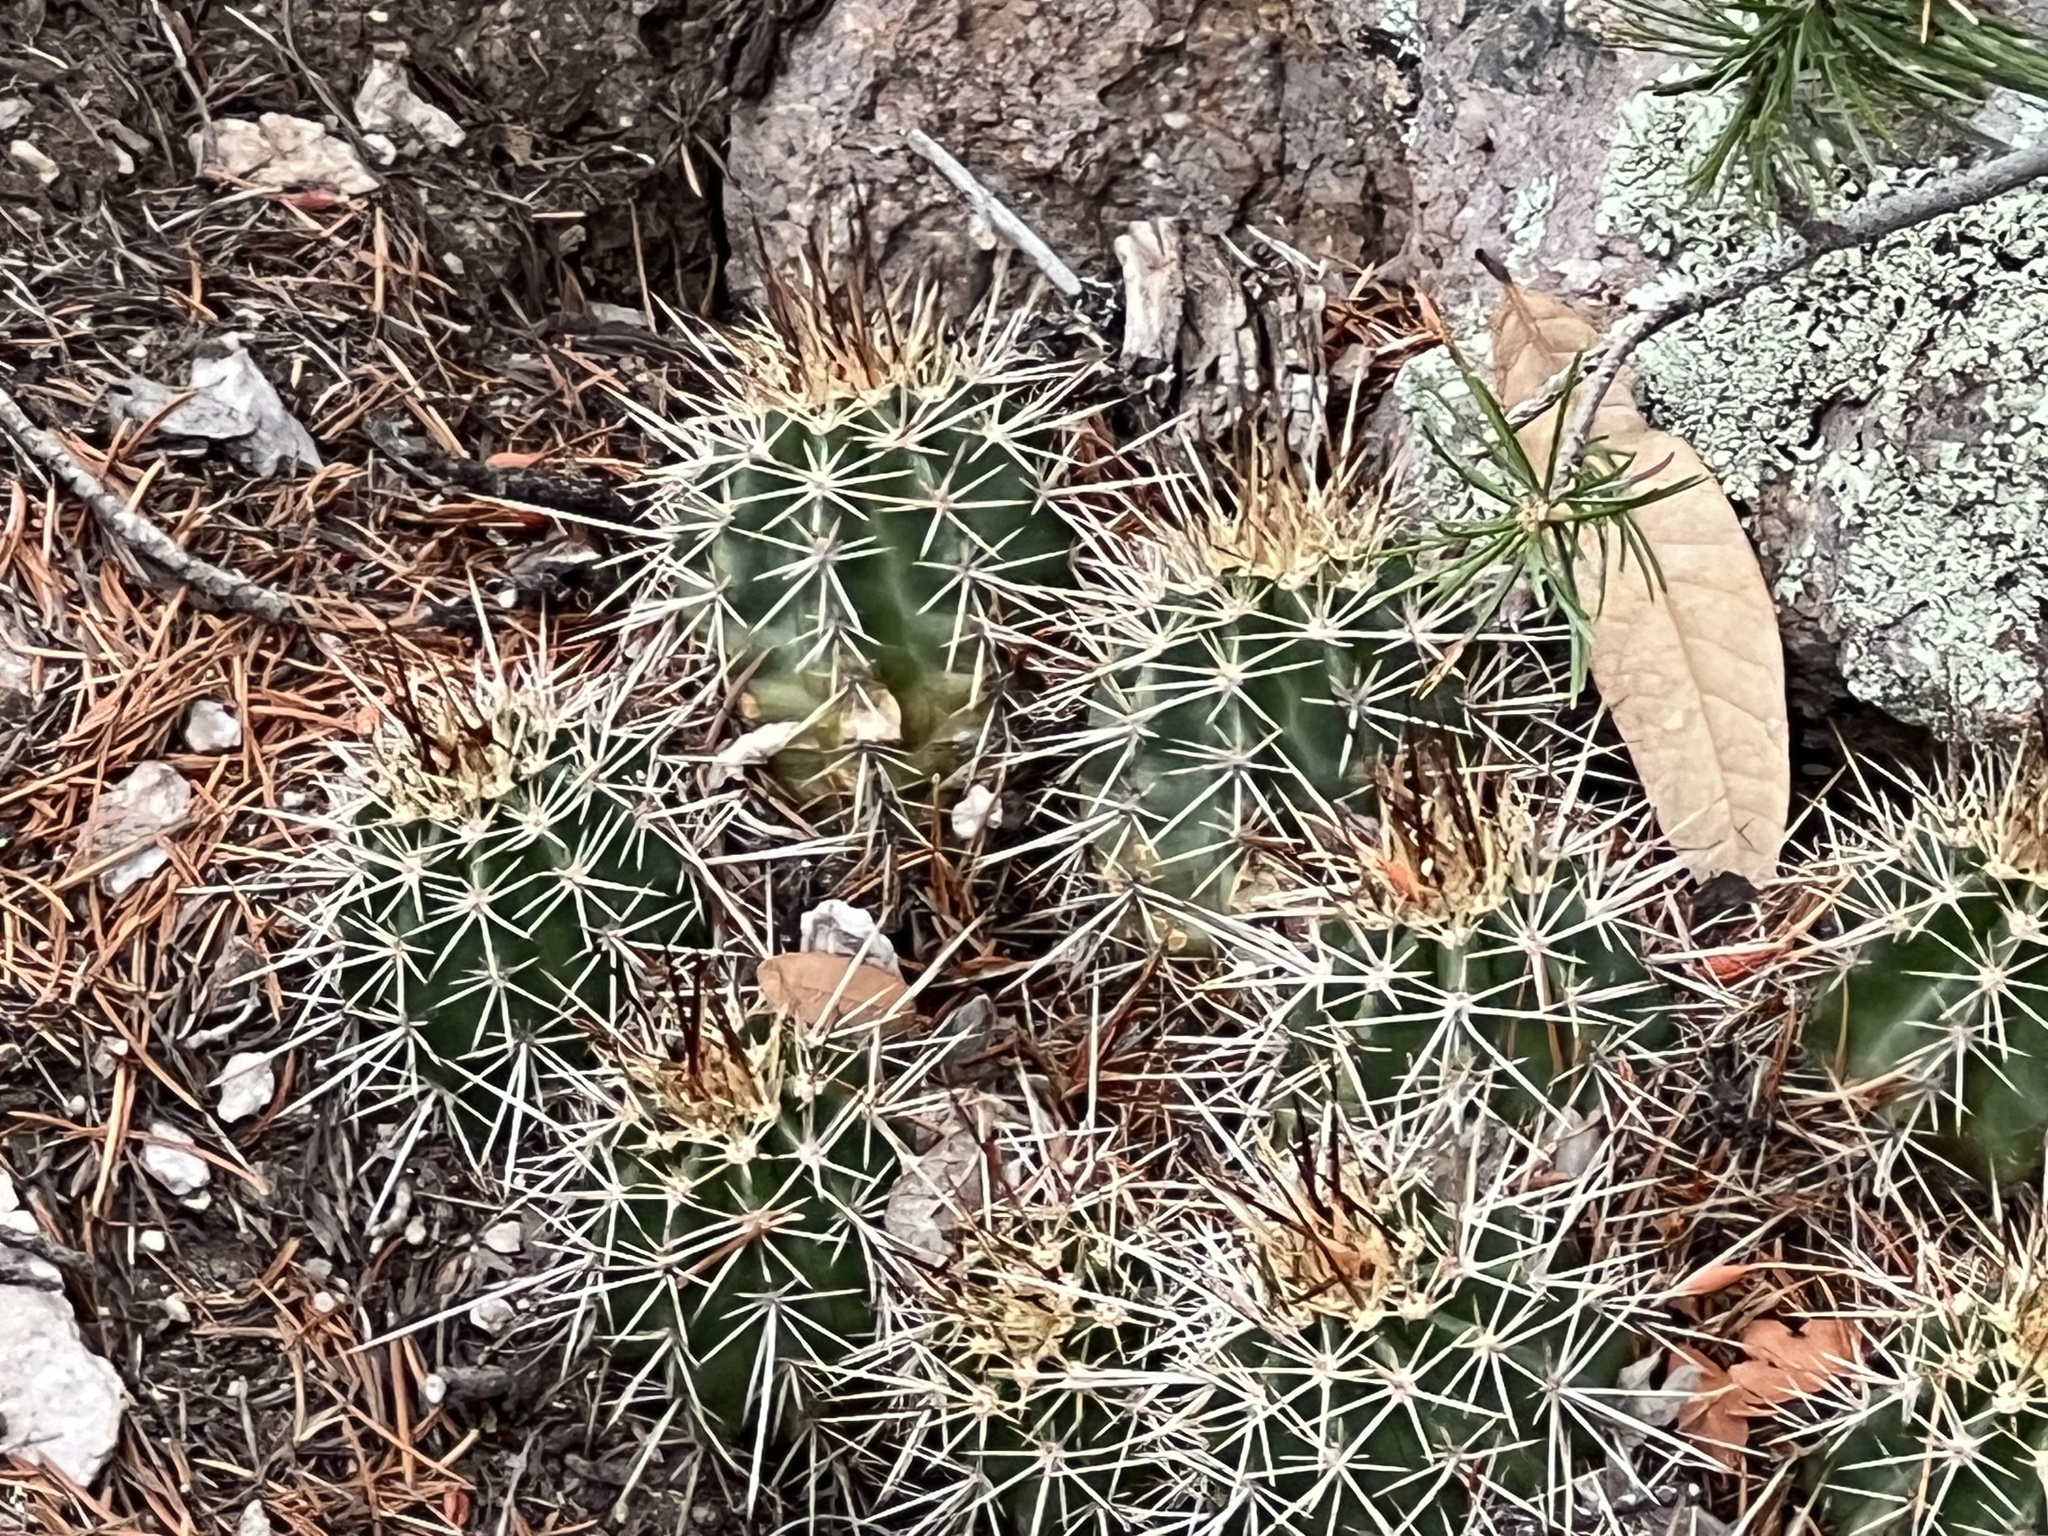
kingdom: Plantae
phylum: Tracheophyta
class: Magnoliopsida
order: Caryophyllales
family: Cactaceae
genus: Echinocereus
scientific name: Echinocereus coccineus
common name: Scarlet hedgehog cactus
